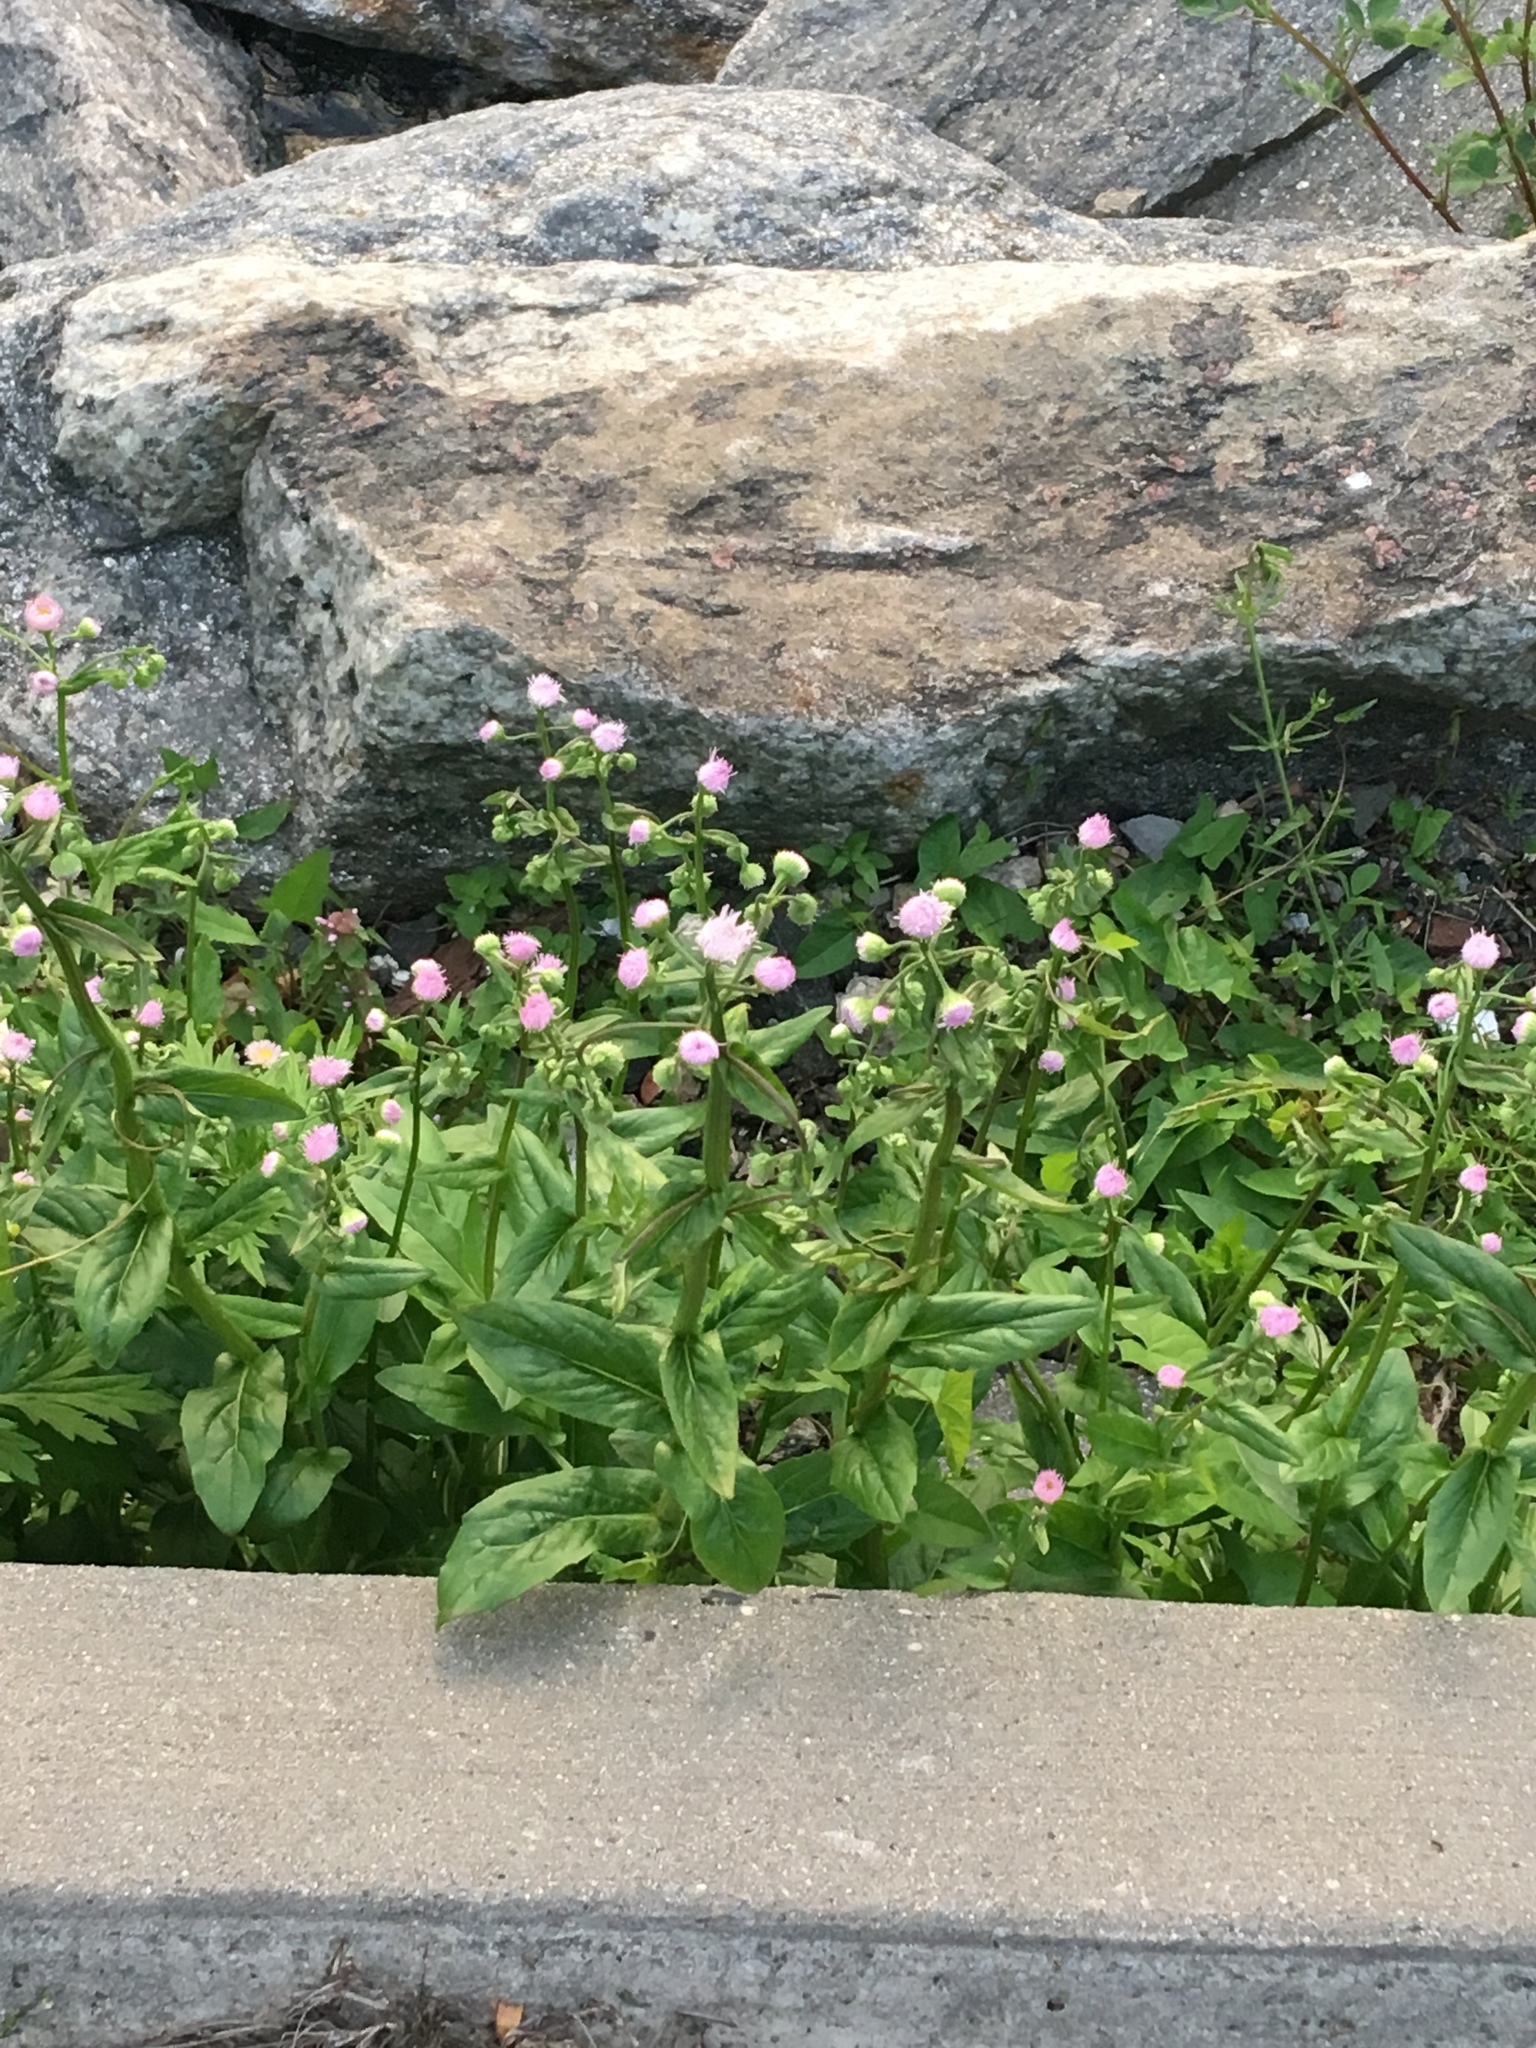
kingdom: Plantae
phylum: Tracheophyta
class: Magnoliopsida
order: Asterales
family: Asteraceae
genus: Erigeron
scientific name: Erigeron philadelphicus
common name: Robin's-plantain
